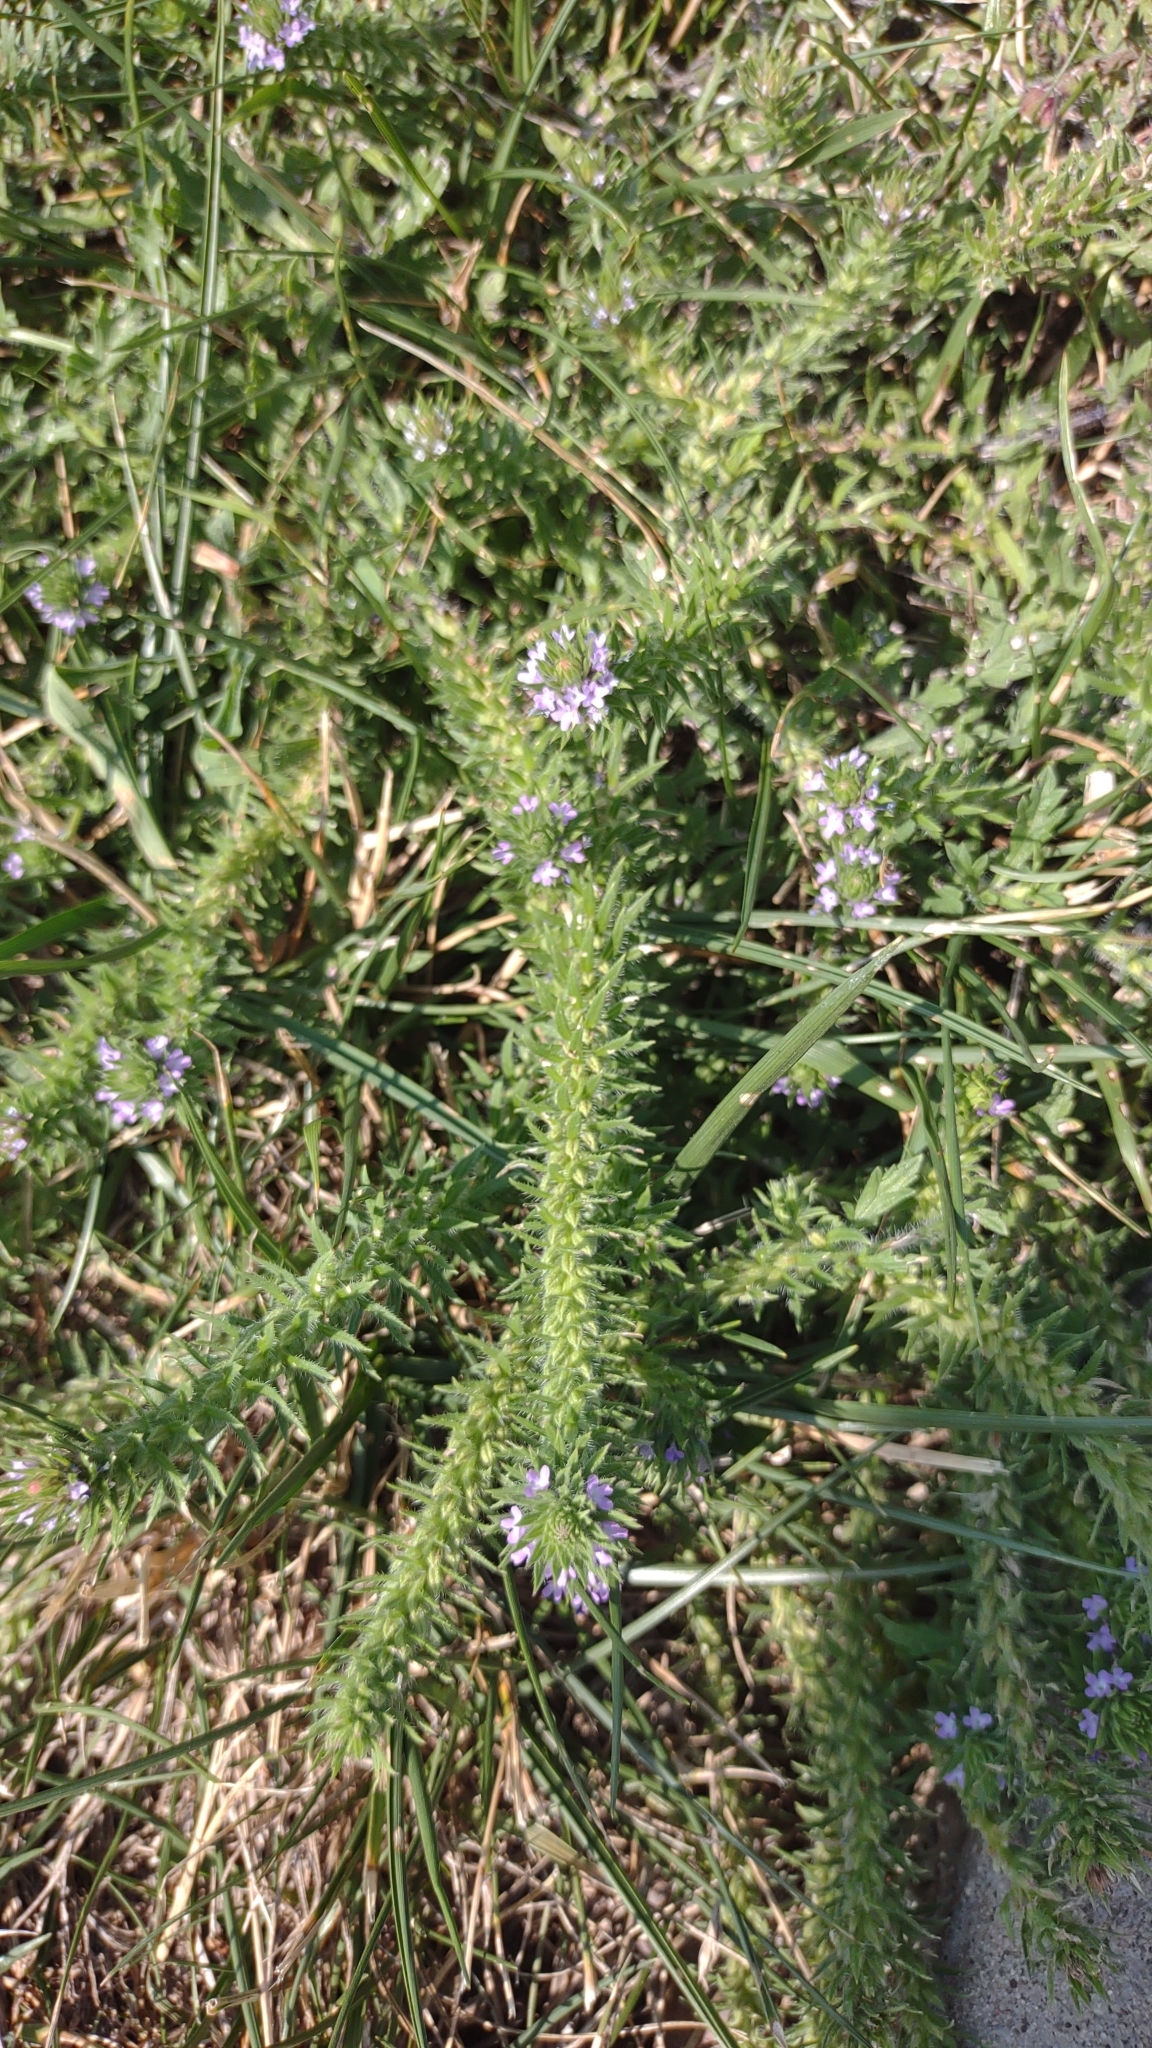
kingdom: Plantae
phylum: Tracheophyta
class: Magnoliopsida
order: Lamiales
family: Verbenaceae
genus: Verbena
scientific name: Verbena bracteata
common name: Bracted vervain
